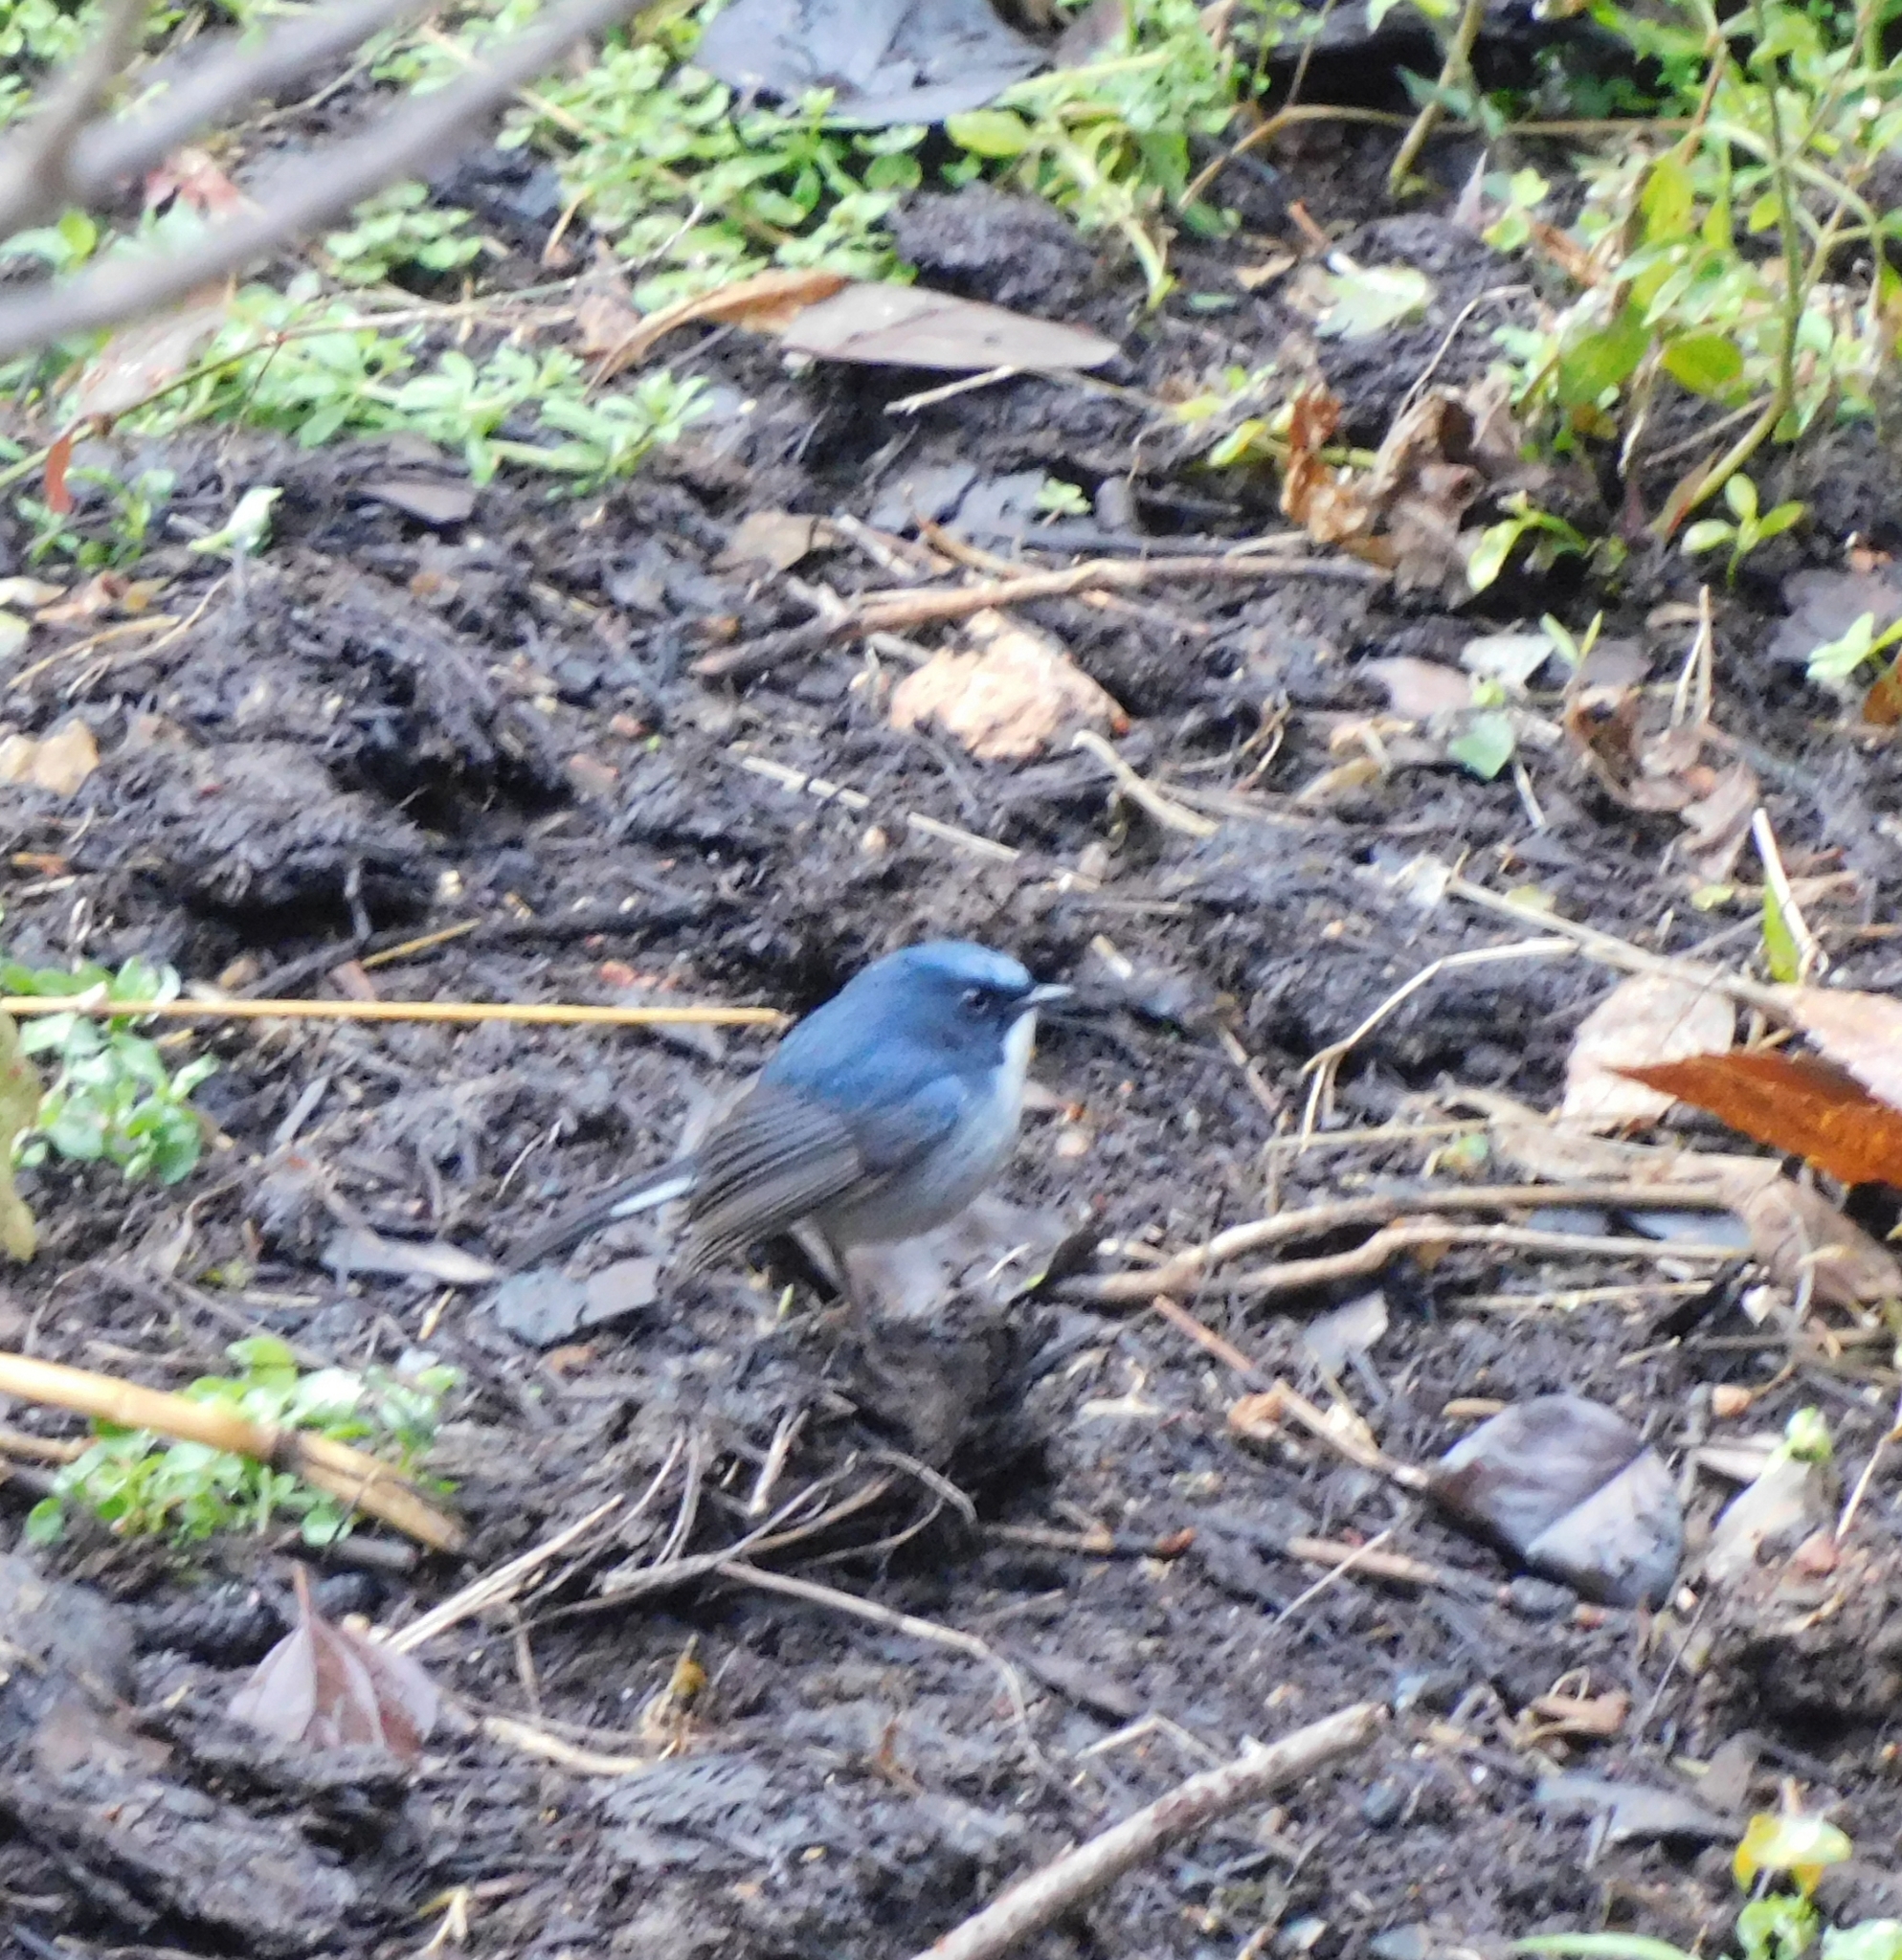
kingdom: Animalia
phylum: Chordata
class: Aves
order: Passeriformes
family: Muscicapidae
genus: Ficedula
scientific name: Ficedula tricolor
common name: Slaty-blue flycatcher
